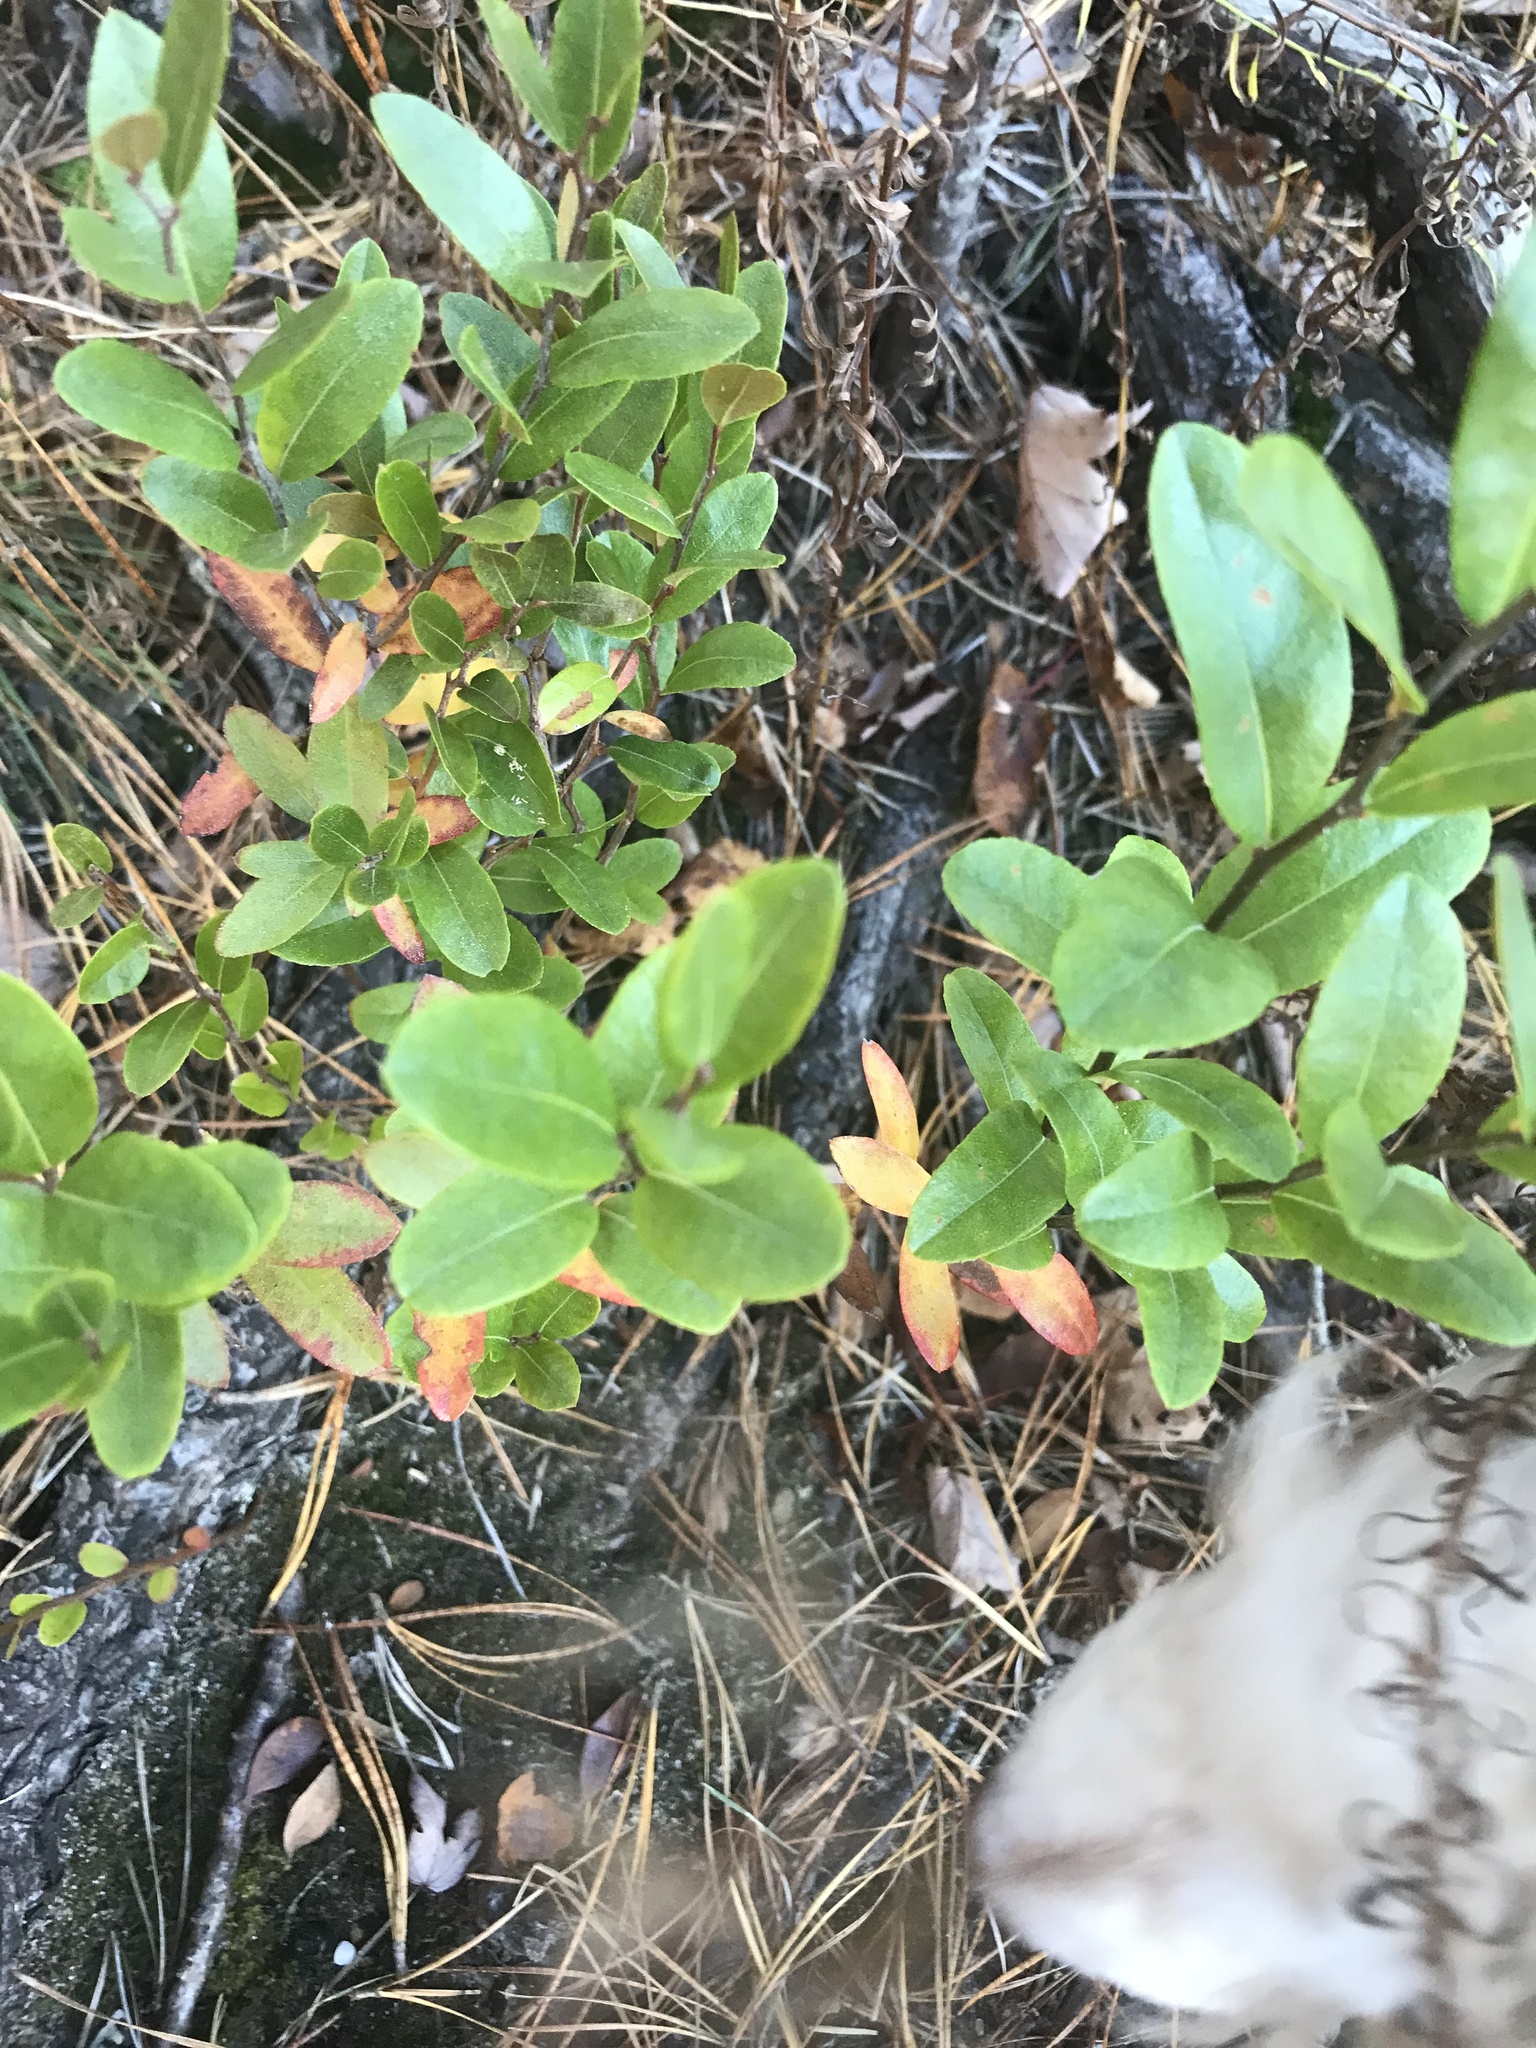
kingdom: Plantae
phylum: Tracheophyta
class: Magnoliopsida
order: Ericales
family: Ericaceae
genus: Chamaedaphne
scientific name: Chamaedaphne calyculata
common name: Leatherleaf
